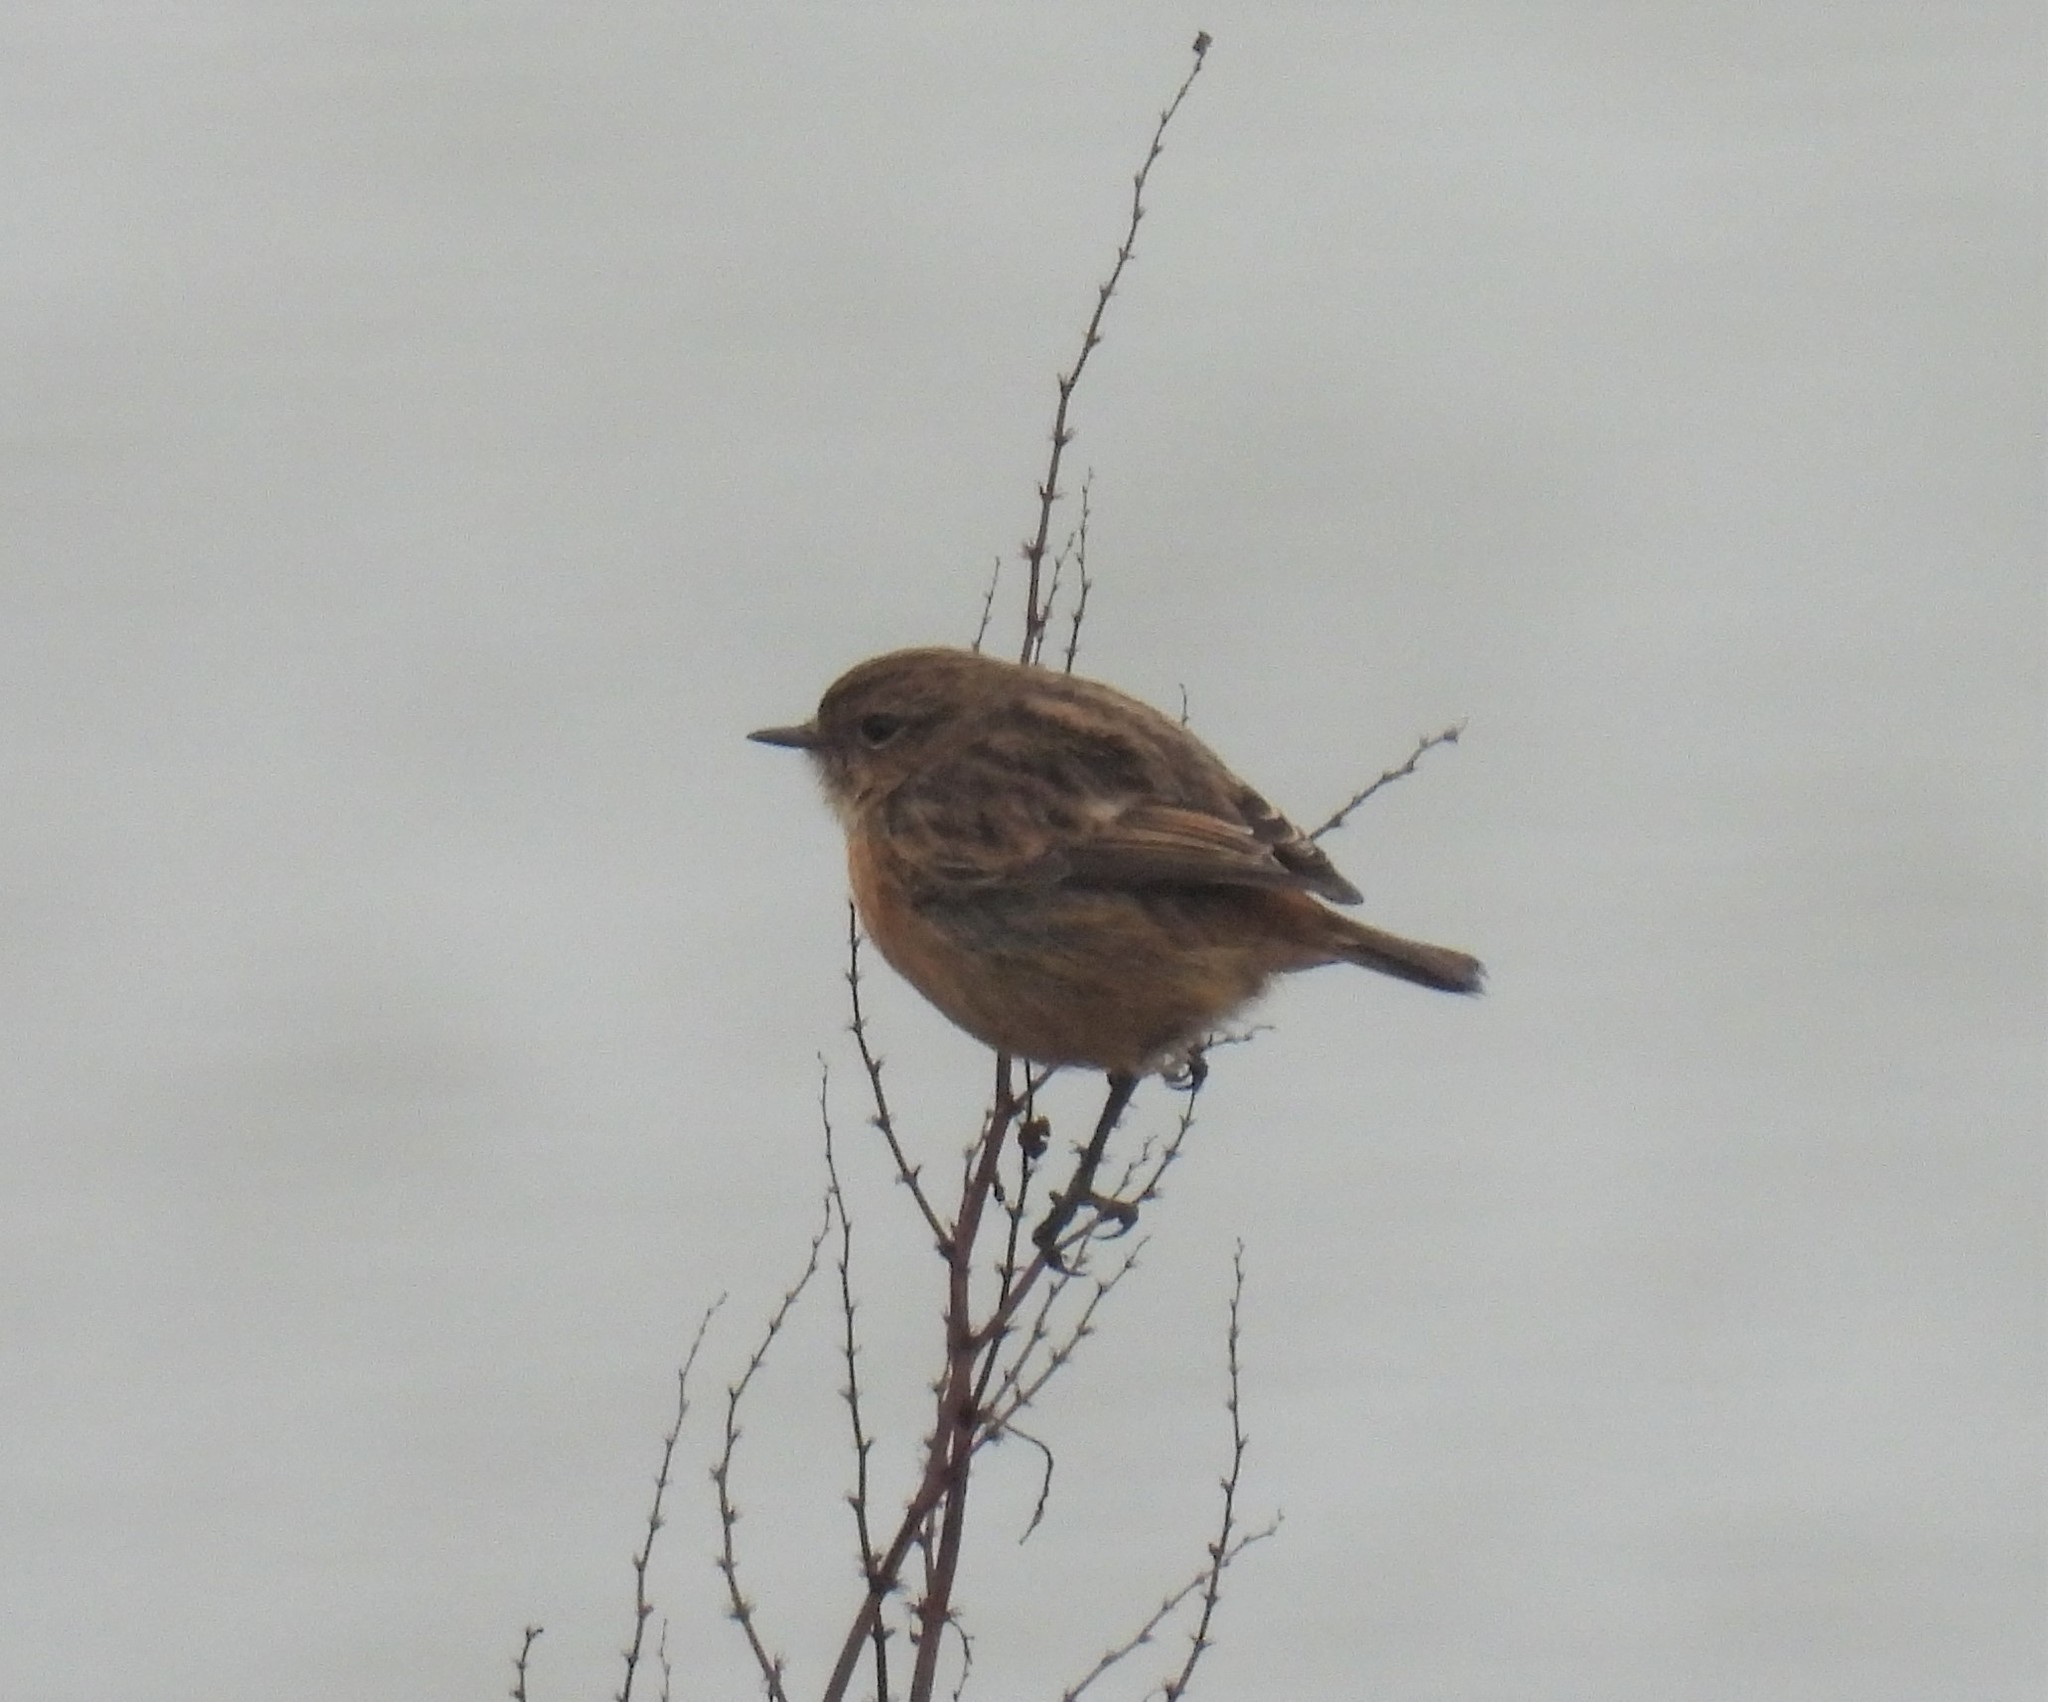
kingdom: Animalia
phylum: Chordata
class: Aves
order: Passeriformes
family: Muscicapidae
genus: Saxicola
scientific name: Saxicola rubicola
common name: European stonechat
